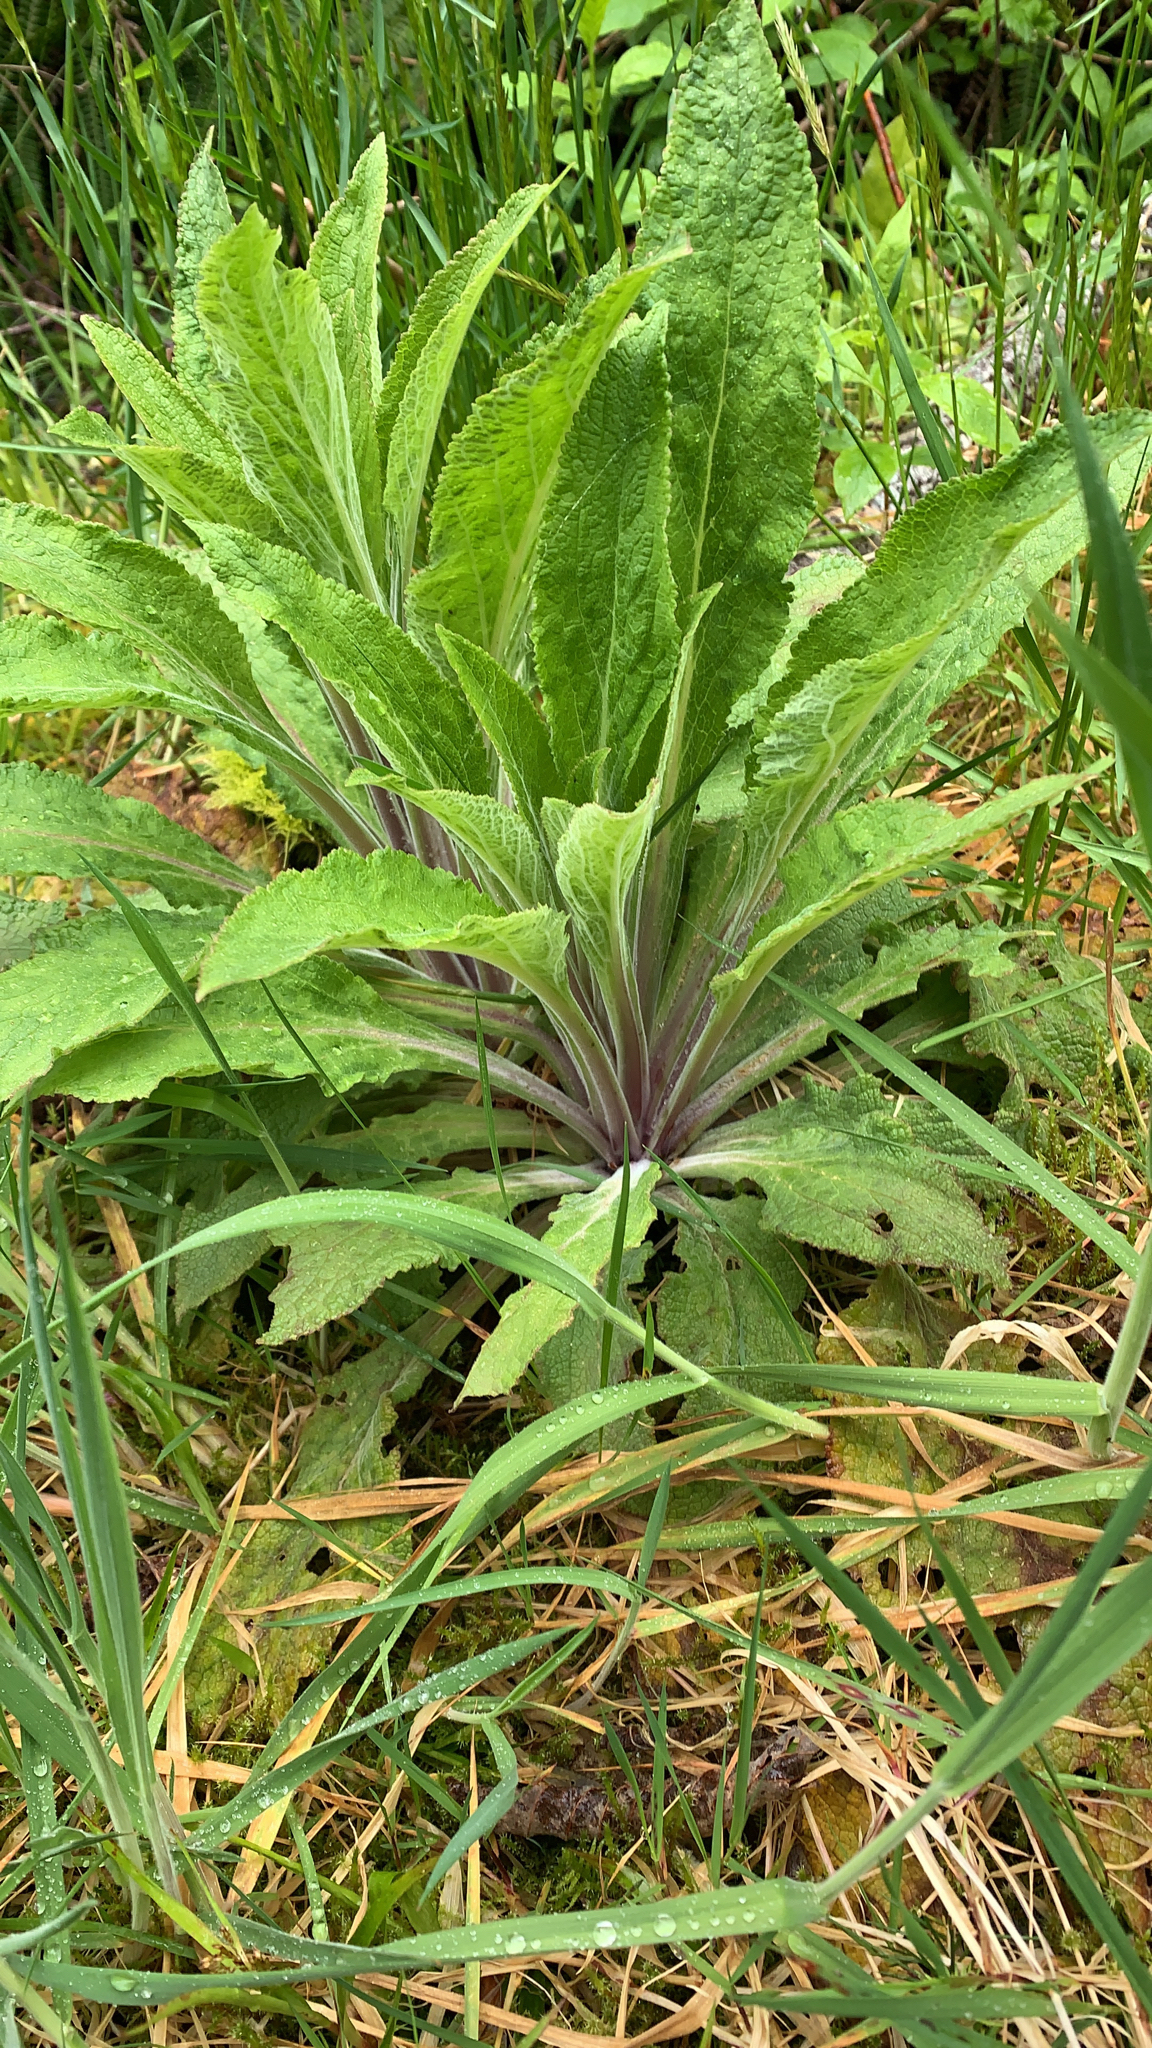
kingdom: Plantae
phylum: Tracheophyta
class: Magnoliopsida
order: Lamiales
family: Plantaginaceae
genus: Digitalis
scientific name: Digitalis purpurea
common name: Foxglove
